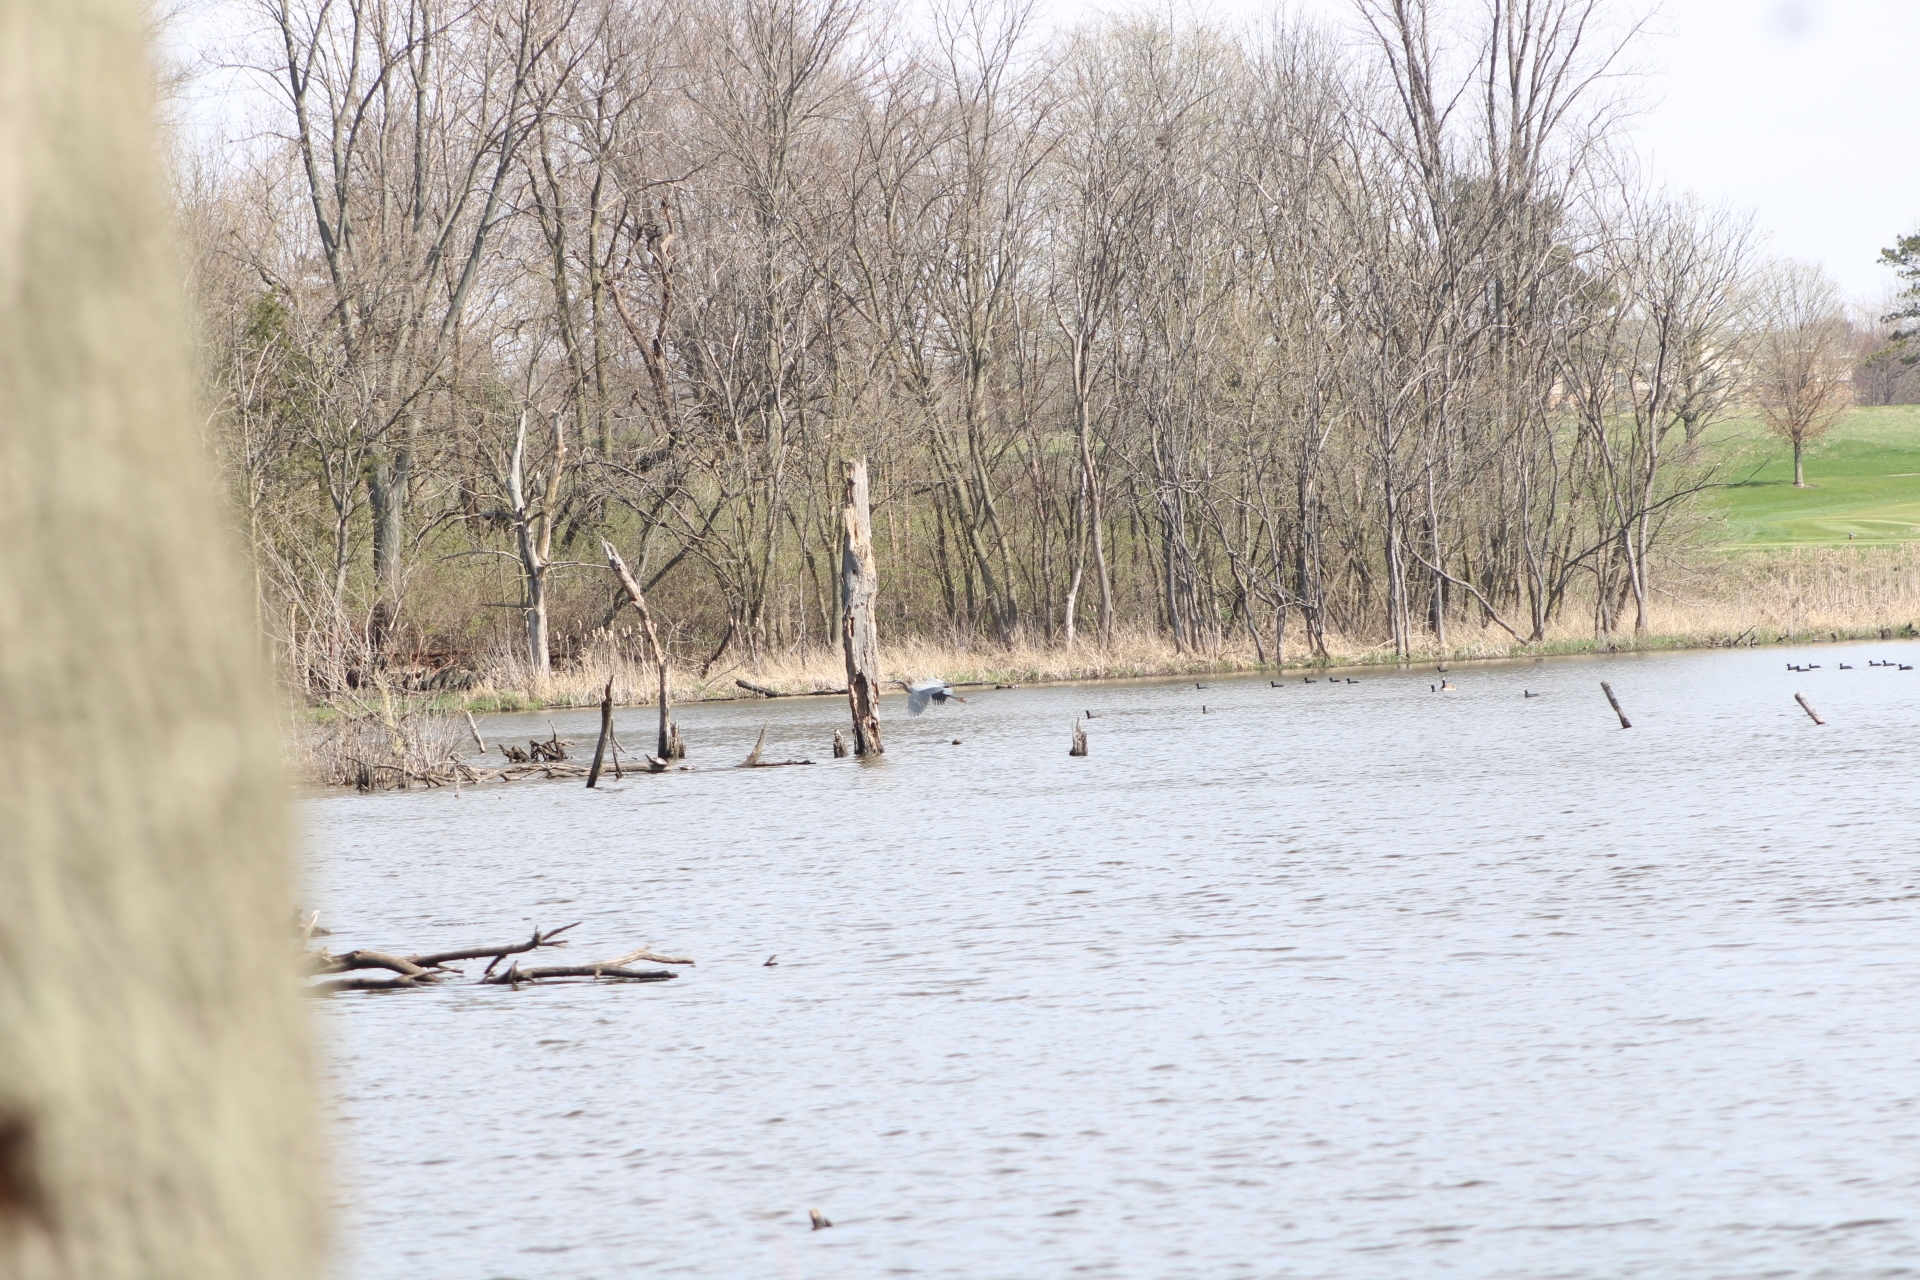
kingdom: Animalia
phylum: Chordata
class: Aves
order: Pelecaniformes
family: Ardeidae
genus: Ardea
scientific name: Ardea herodias
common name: Great blue heron
